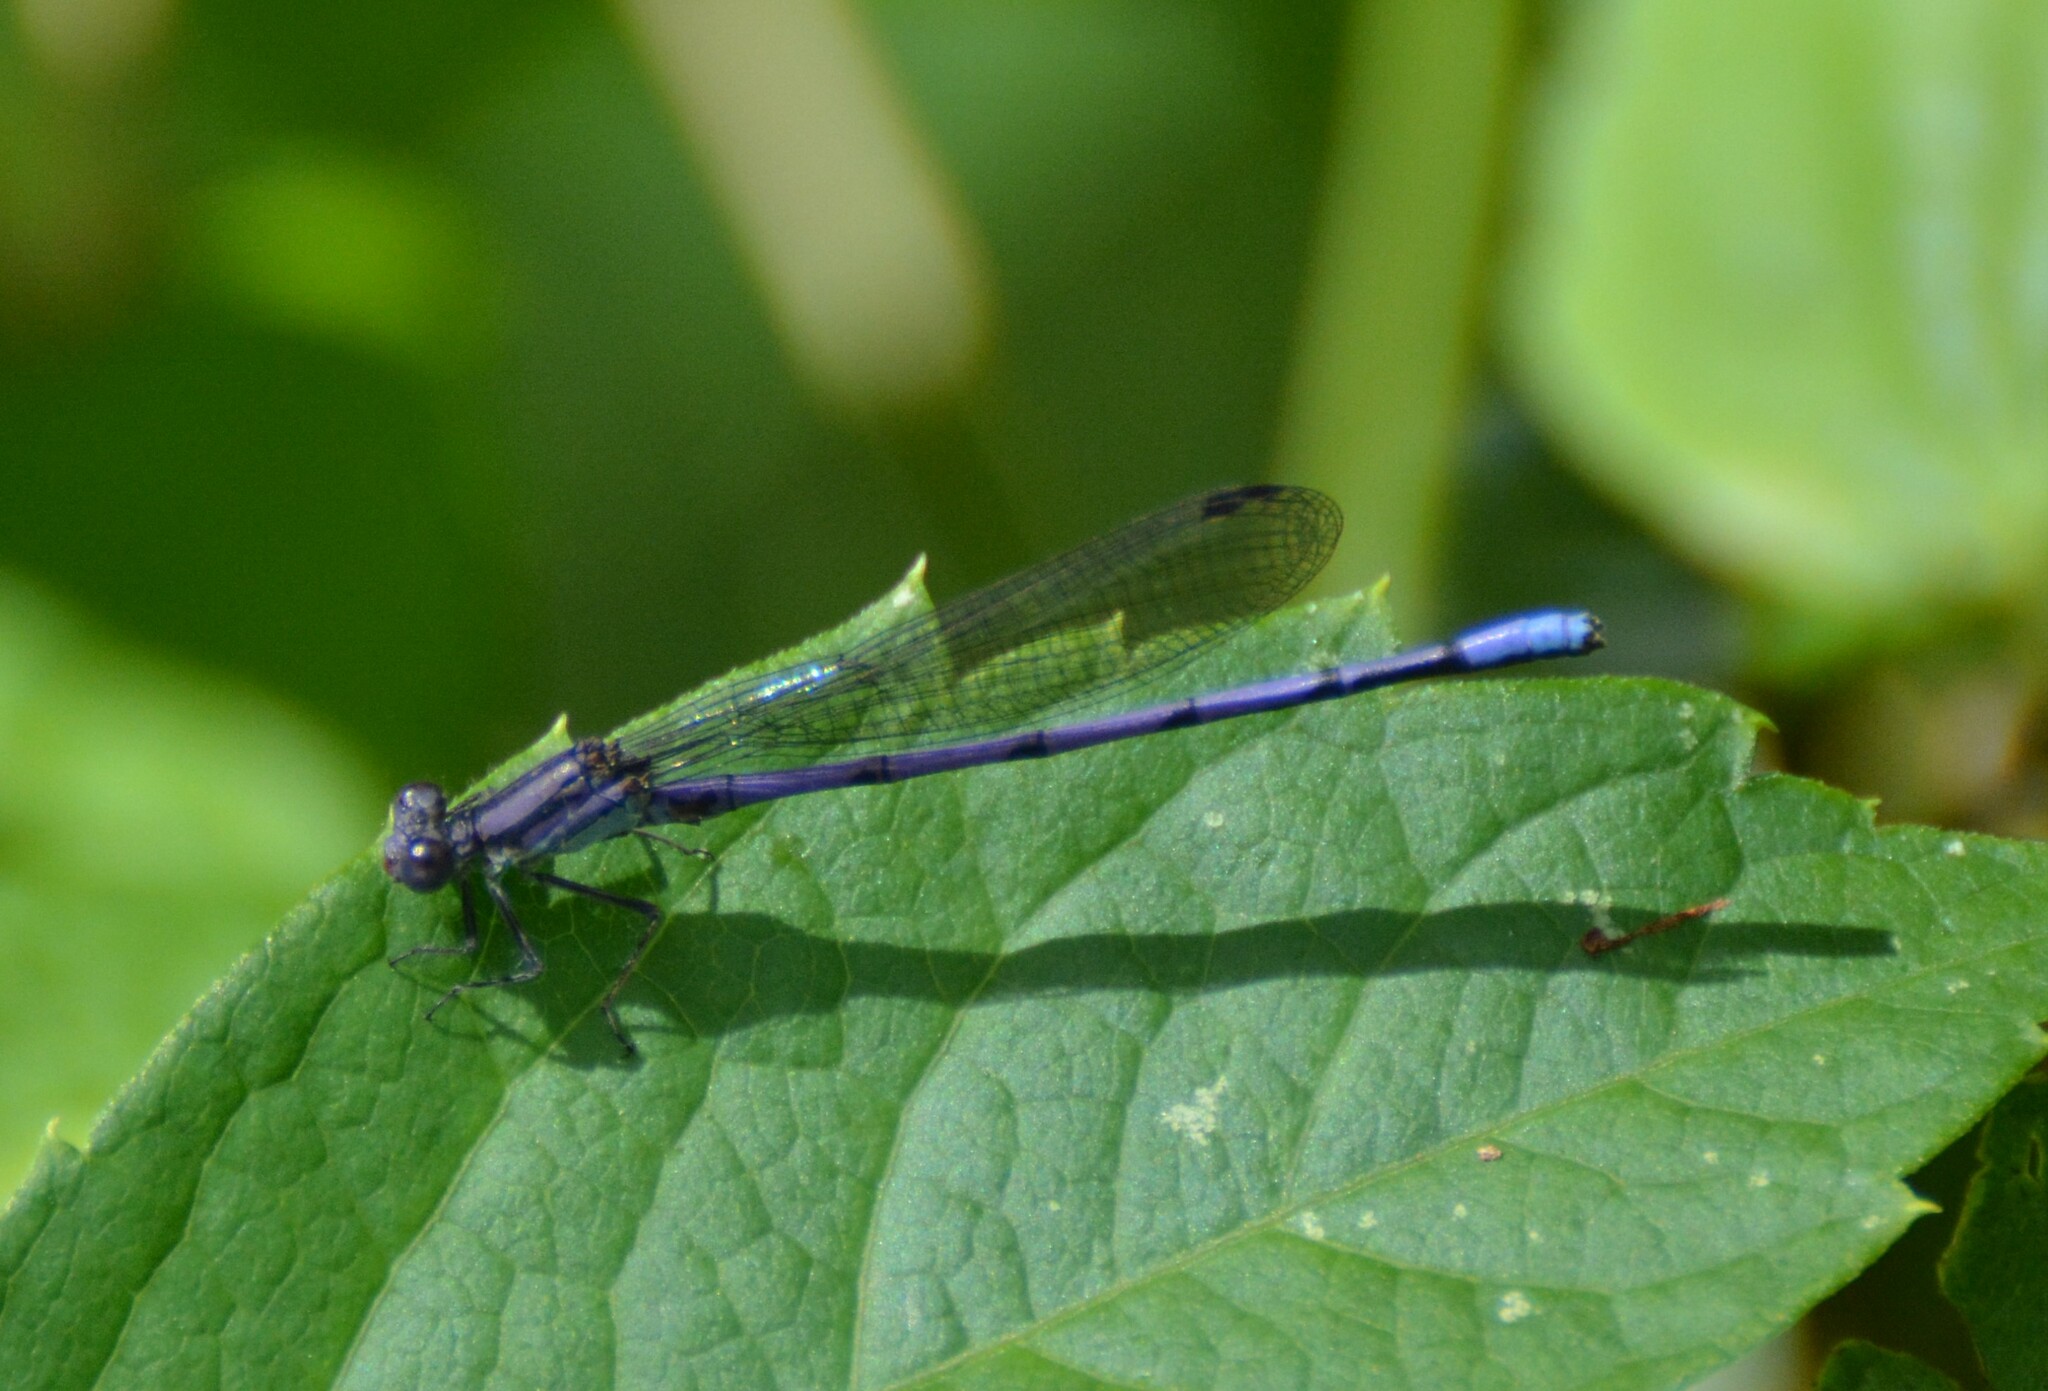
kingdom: Animalia
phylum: Arthropoda
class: Insecta
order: Odonata
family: Coenagrionidae
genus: Argia
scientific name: Argia fumipennis
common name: Variable dancer
